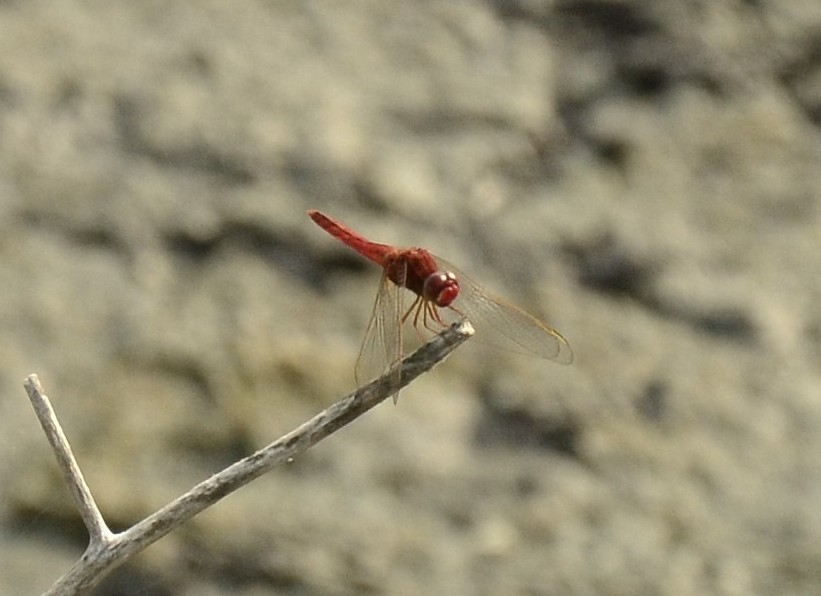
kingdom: Animalia
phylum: Arthropoda
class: Insecta
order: Odonata
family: Libellulidae
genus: Crocothemis
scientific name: Crocothemis servilia
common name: Scarlet skimmer
